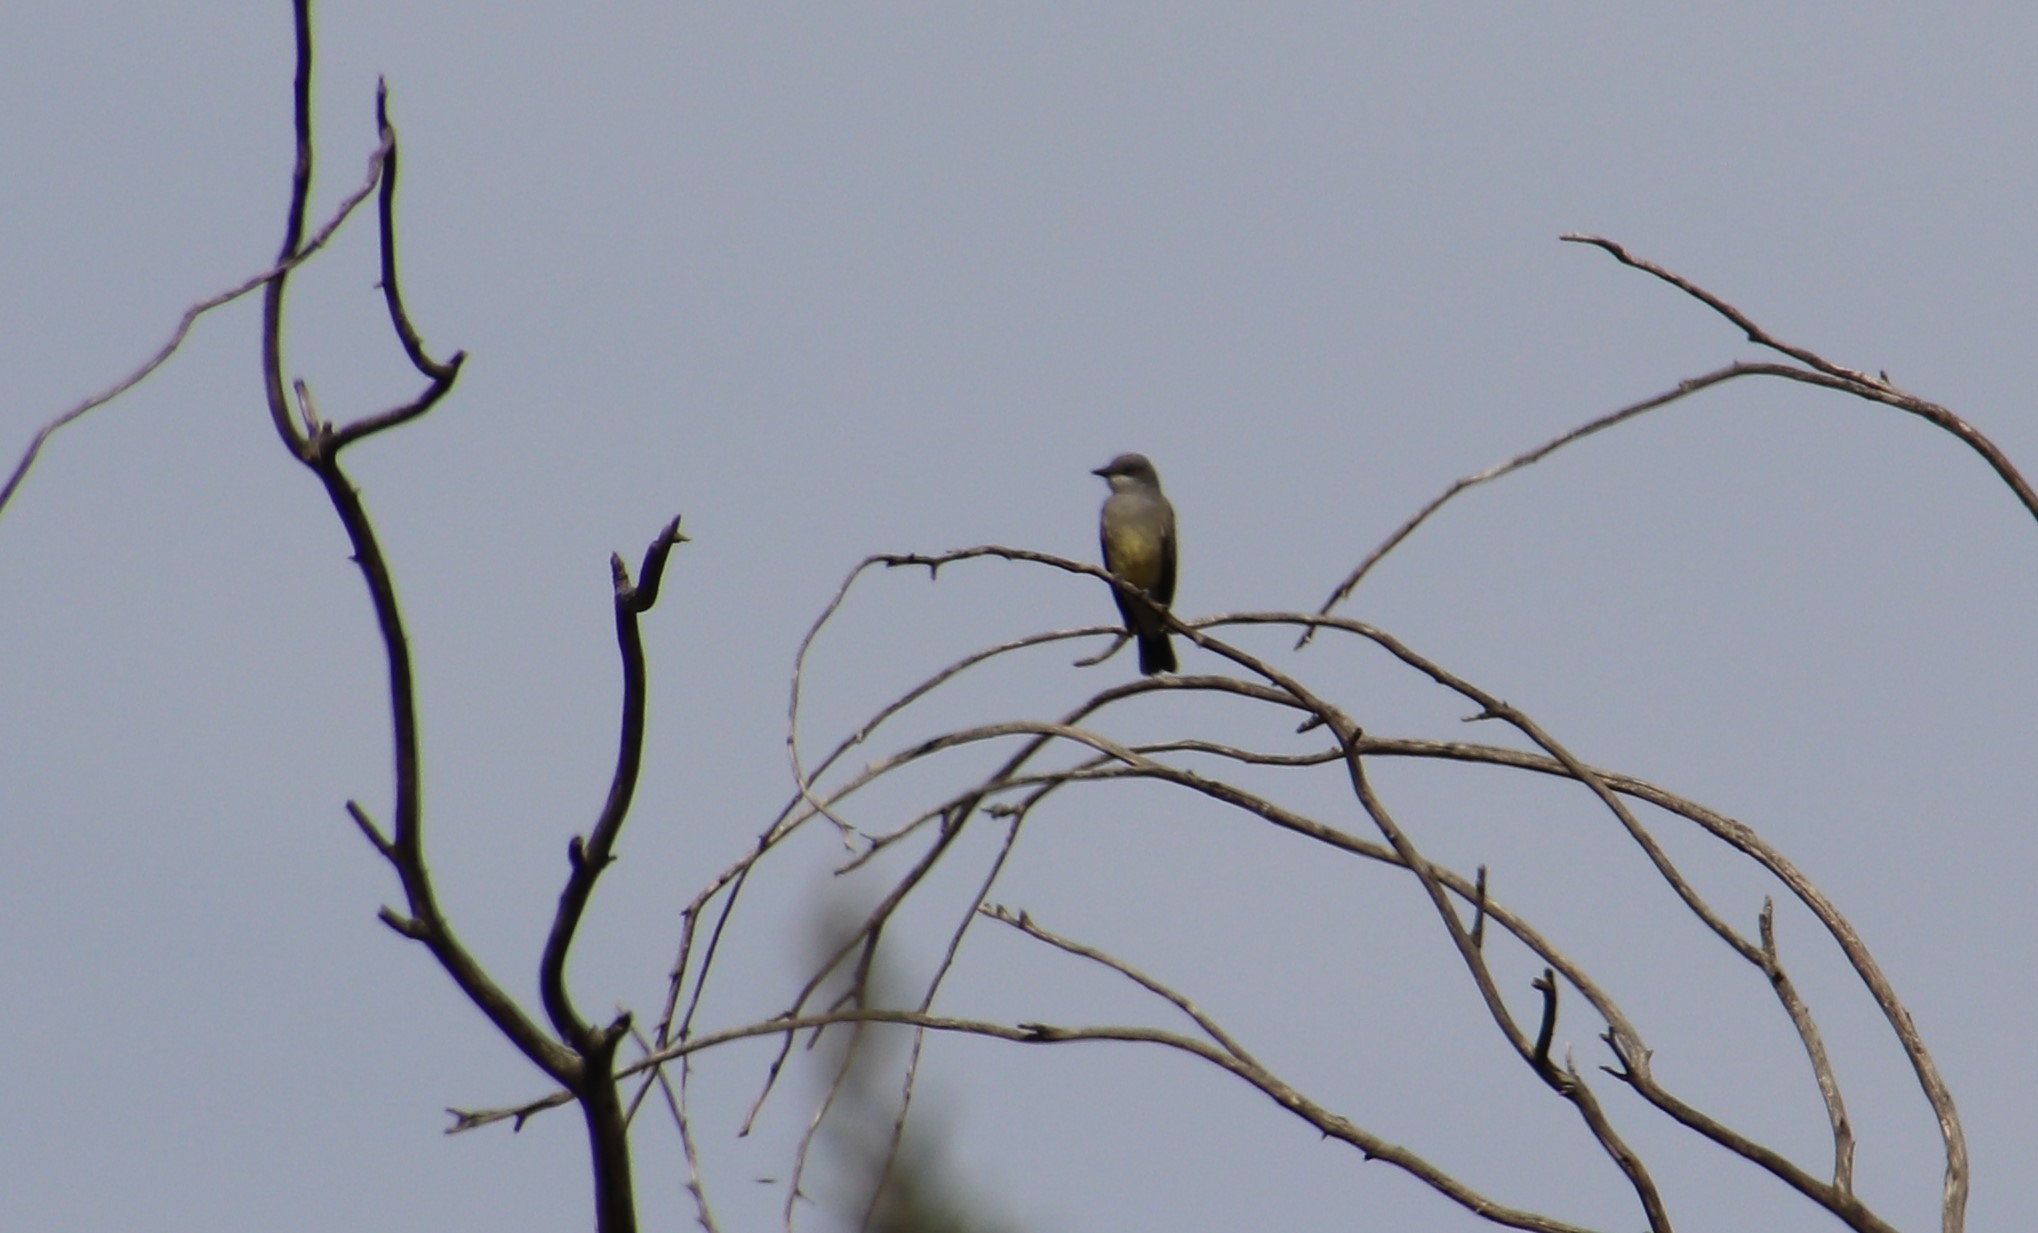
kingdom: Animalia
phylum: Chordata
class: Aves
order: Passeriformes
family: Tyrannidae
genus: Tyrannus
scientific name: Tyrannus vociferans
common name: Cassin's kingbird
